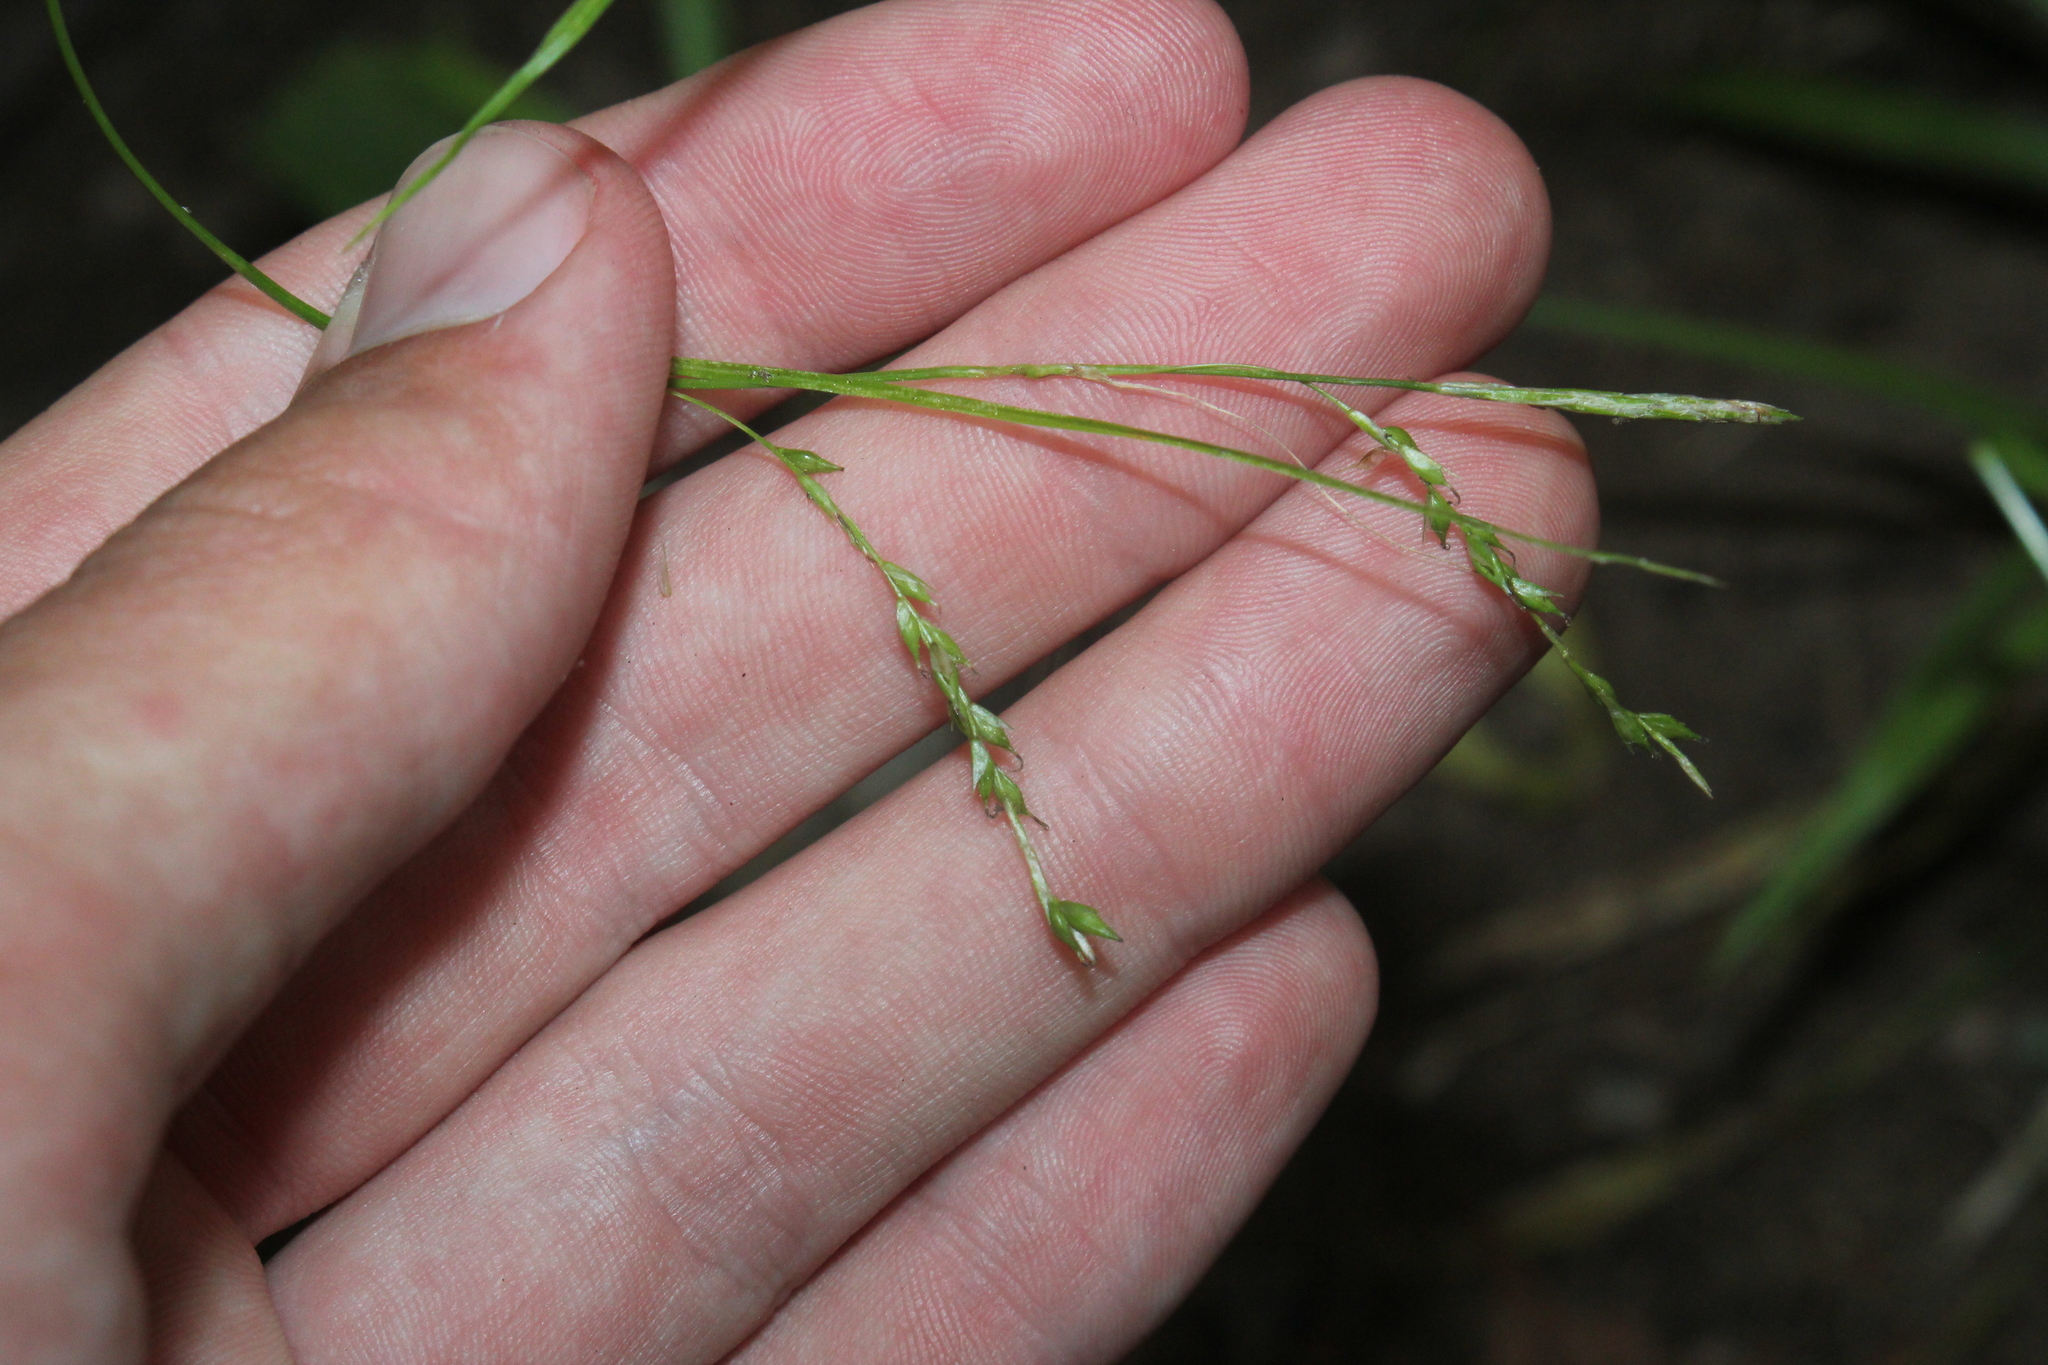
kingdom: Plantae
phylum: Tracheophyta
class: Liliopsida
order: Poales
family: Cyperaceae
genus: Carex
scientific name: Carex arctata
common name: Black sedge
